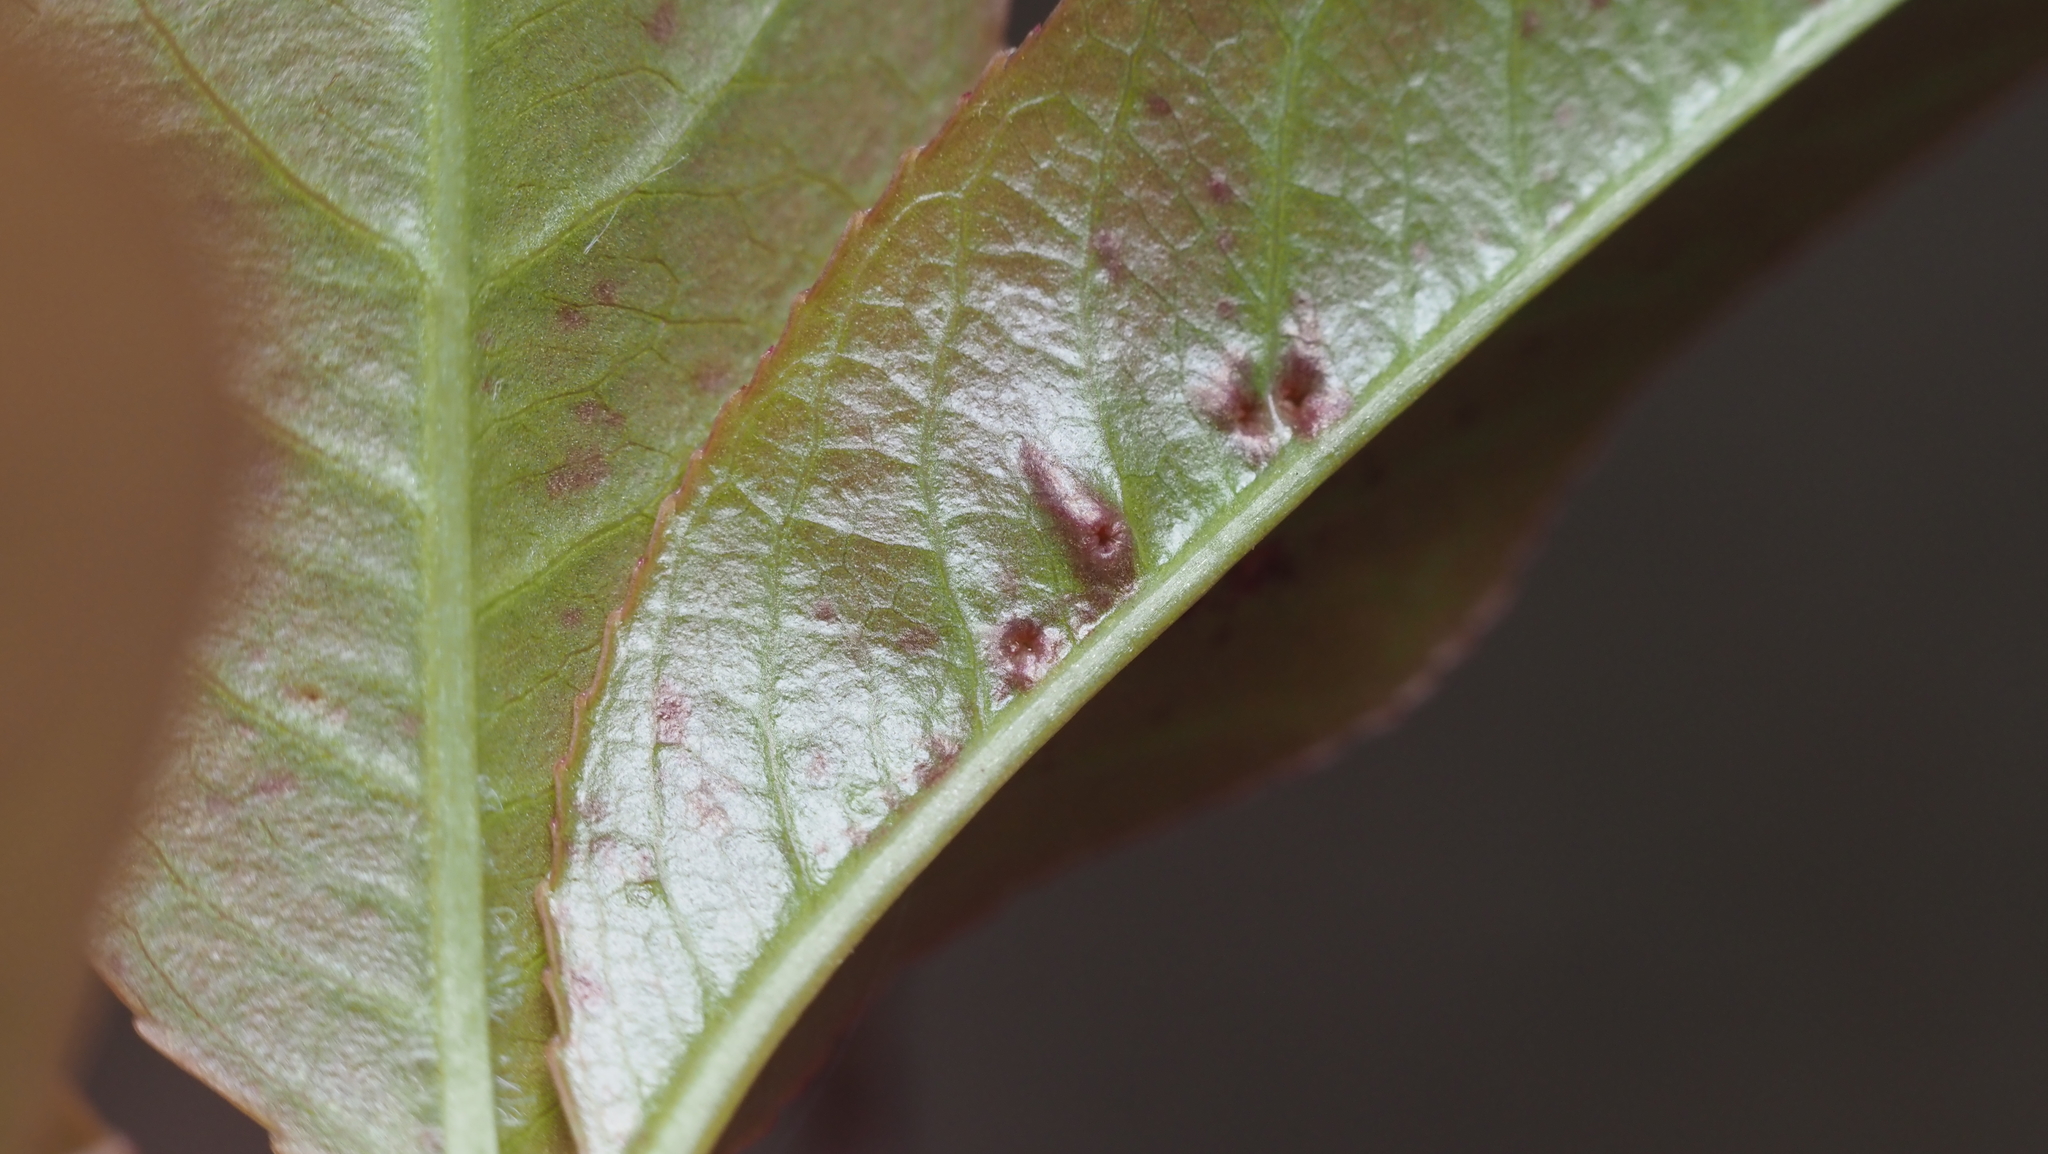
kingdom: Animalia
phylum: Arthropoda
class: Arachnida
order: Trombidiformes
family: Eriophyidae
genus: Eriophyes
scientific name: Eriophyes
